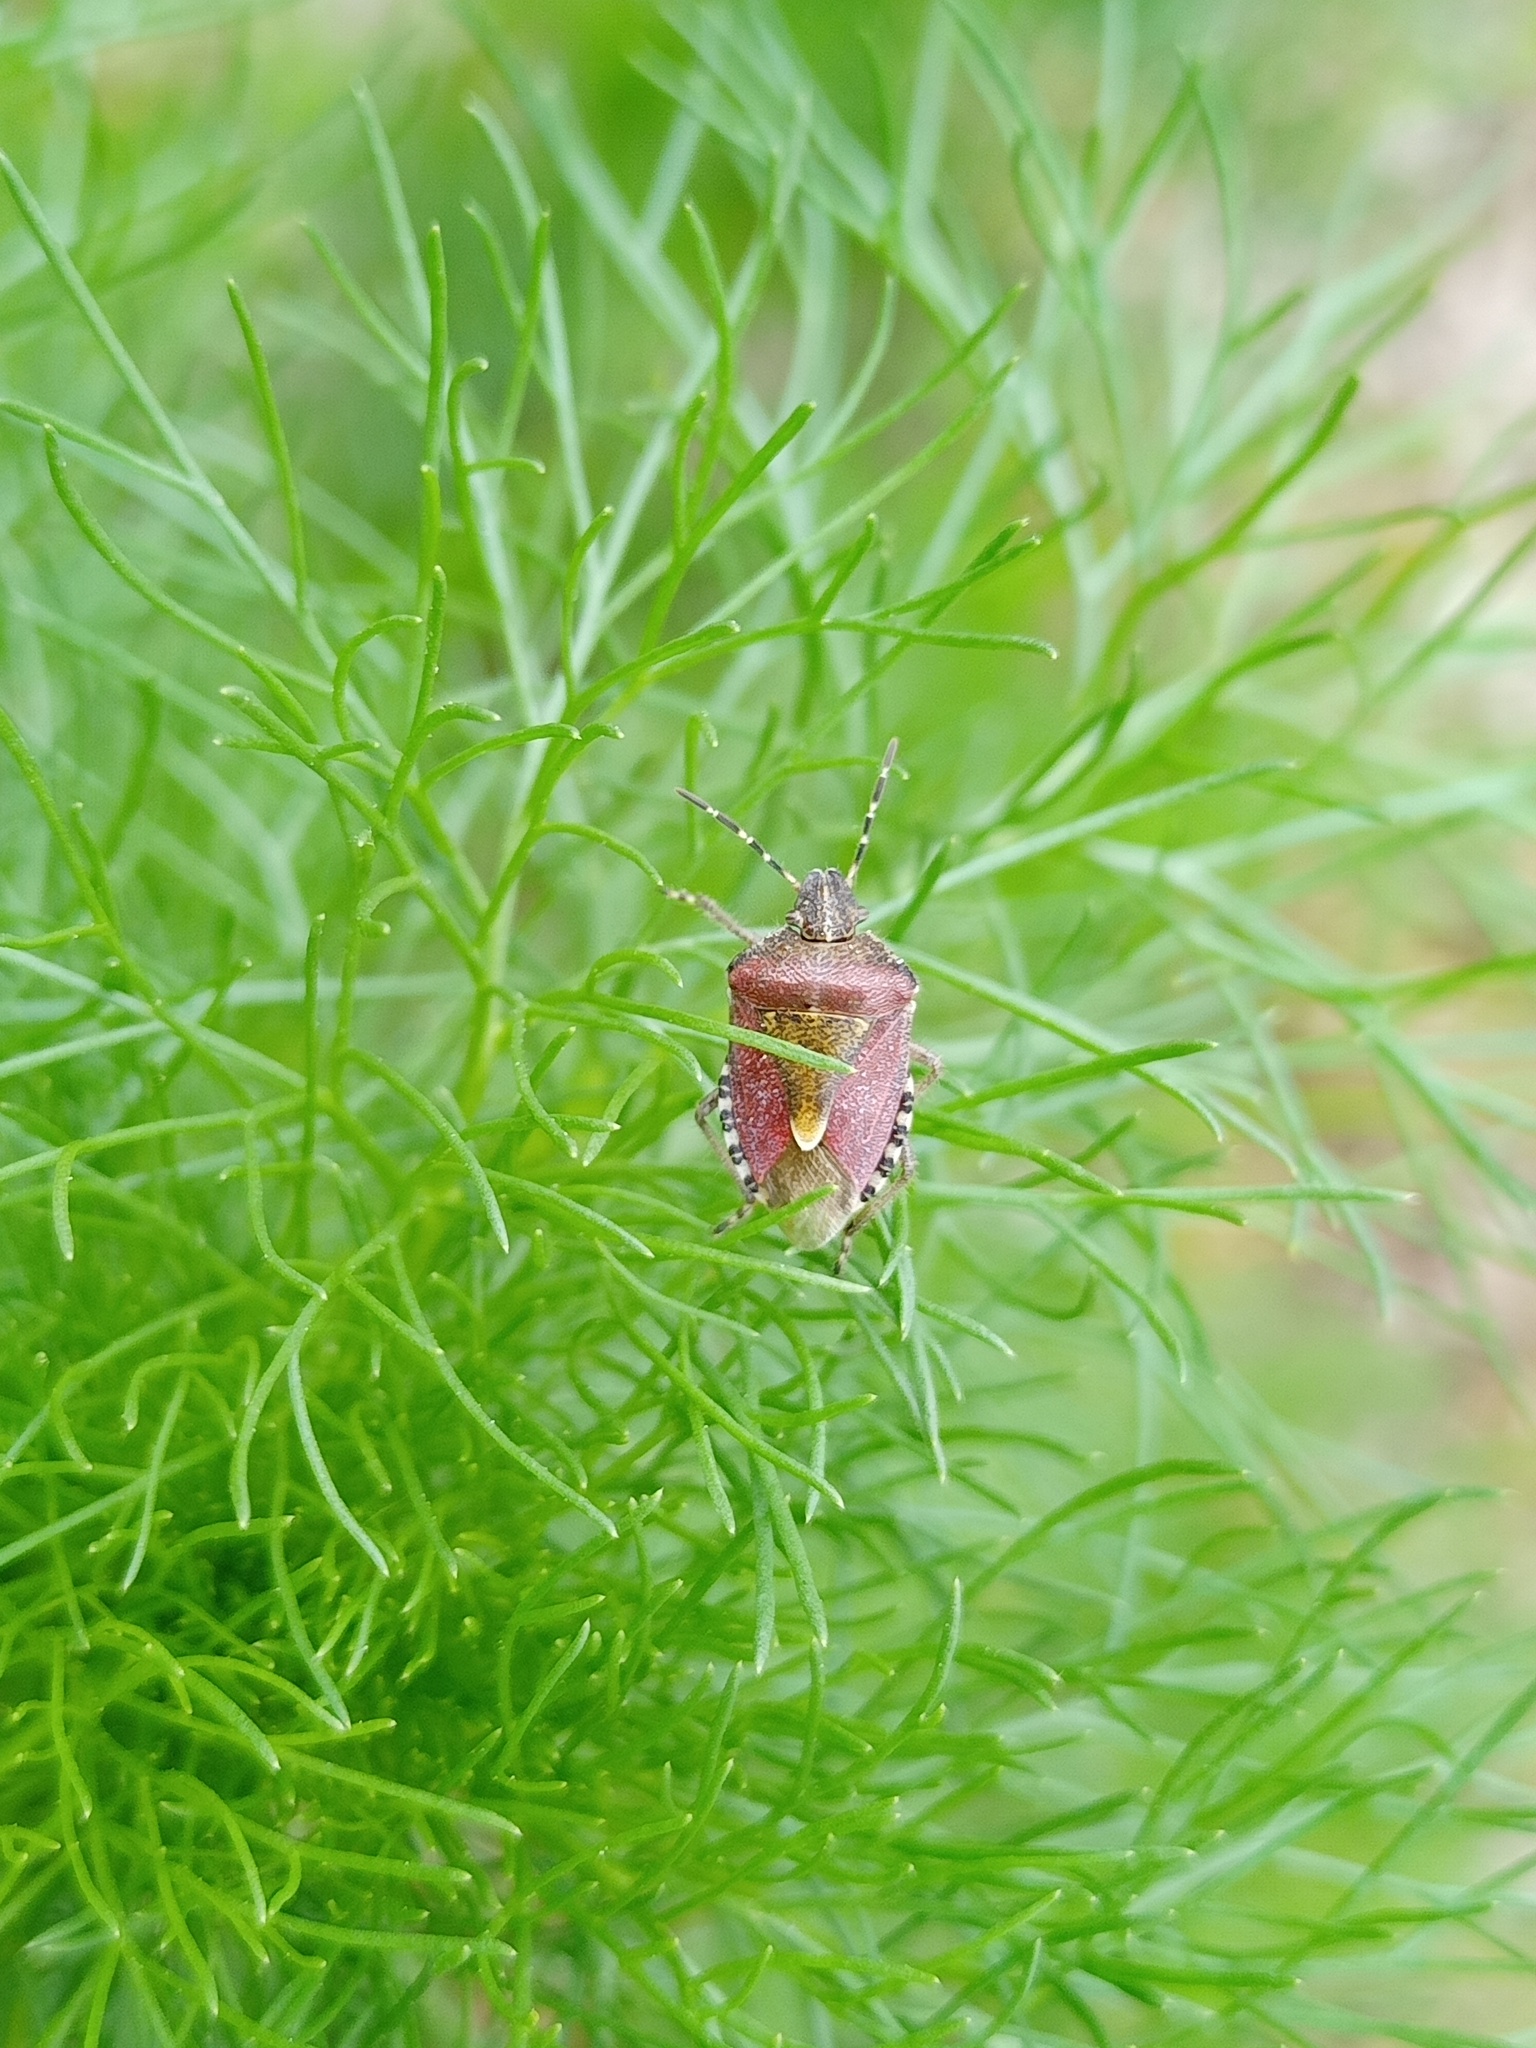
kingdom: Animalia
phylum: Arthropoda
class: Insecta
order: Hemiptera
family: Pentatomidae
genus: Dolycoris
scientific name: Dolycoris baccarum
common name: Sloe bug
